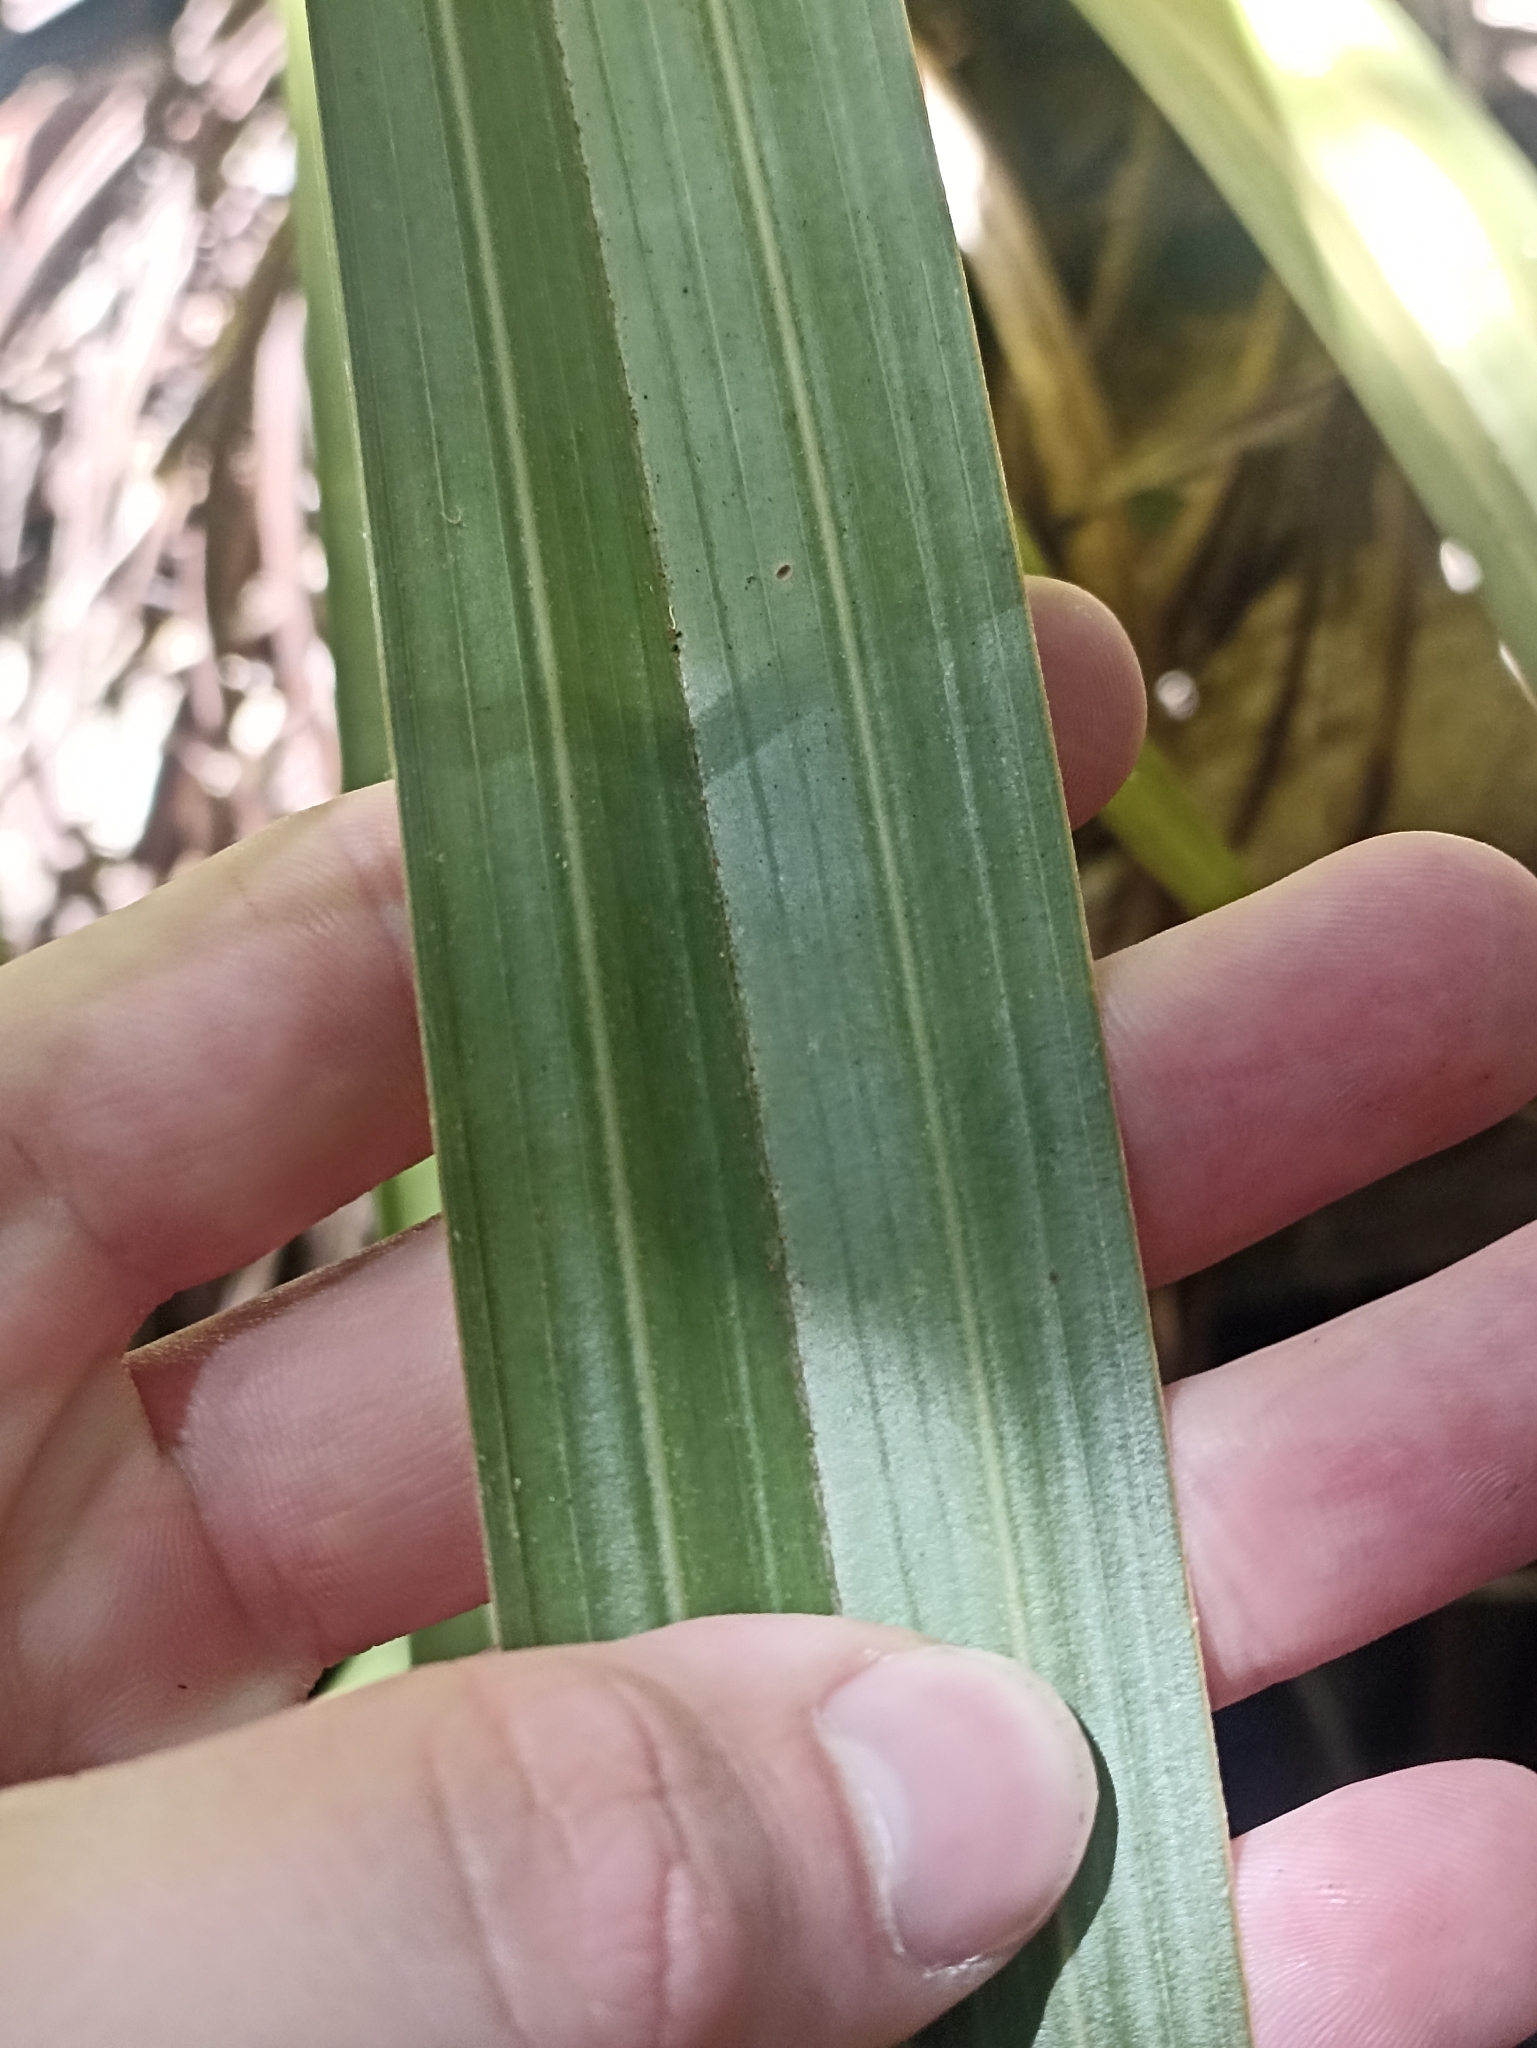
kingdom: Plantae
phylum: Tracheophyta
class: Liliopsida
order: Asparagales
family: Asteliaceae
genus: Astelia
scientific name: Astelia hastata
